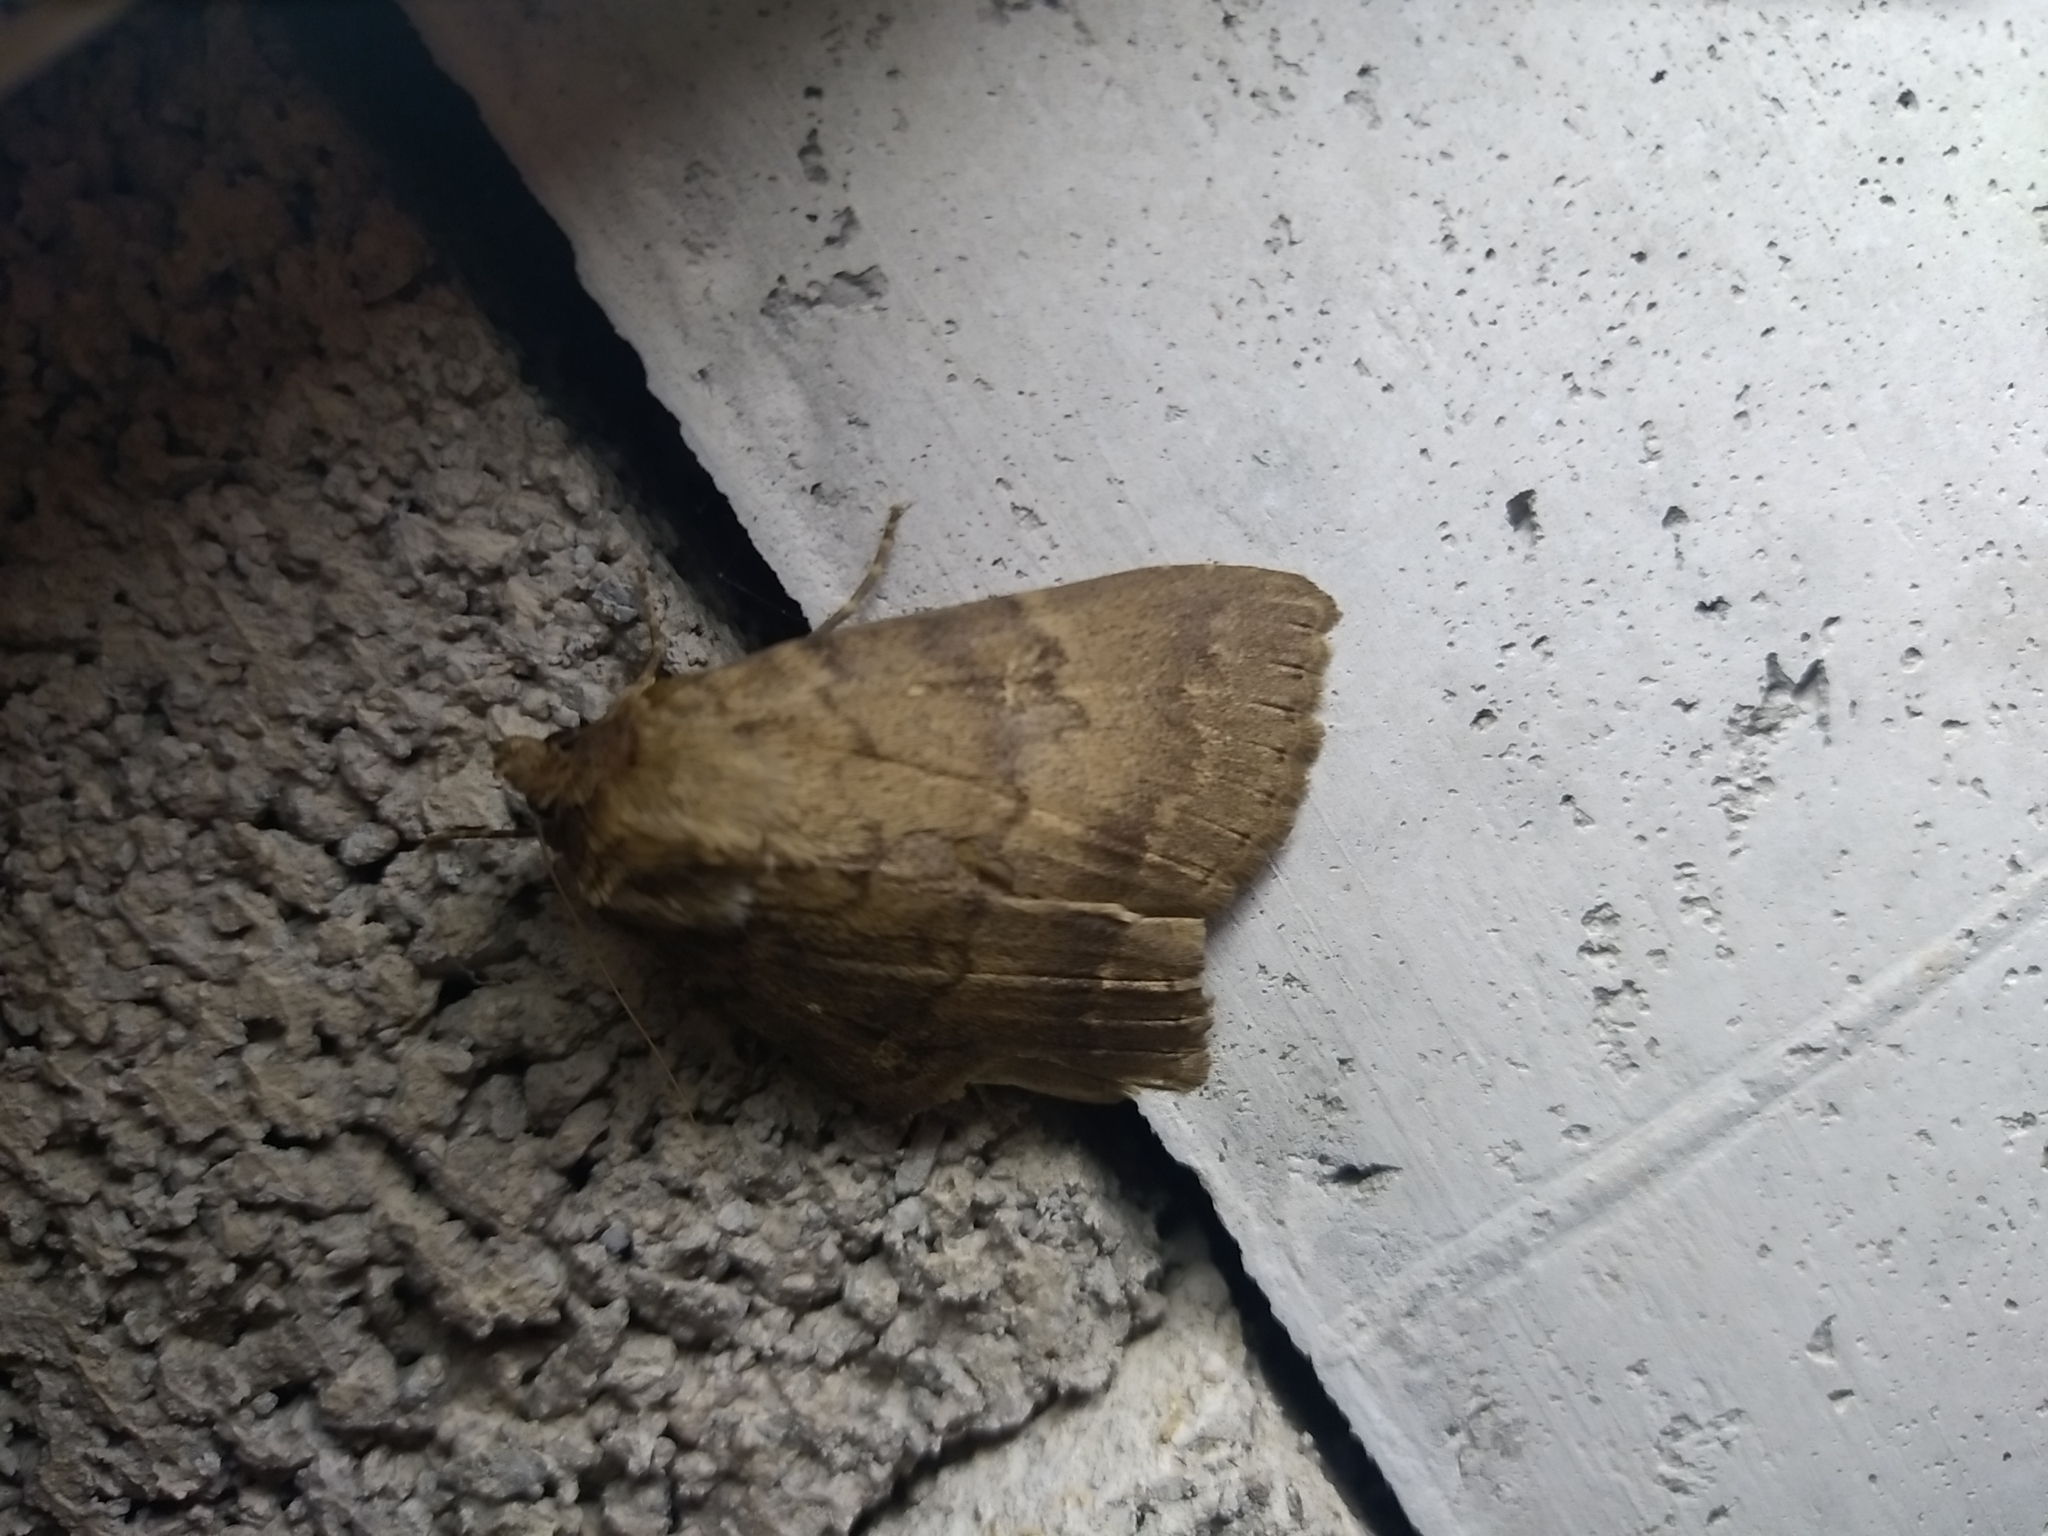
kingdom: Animalia
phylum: Arthropoda
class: Insecta
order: Lepidoptera
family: Erebidae
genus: Apopestes
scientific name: Apopestes spectrum
